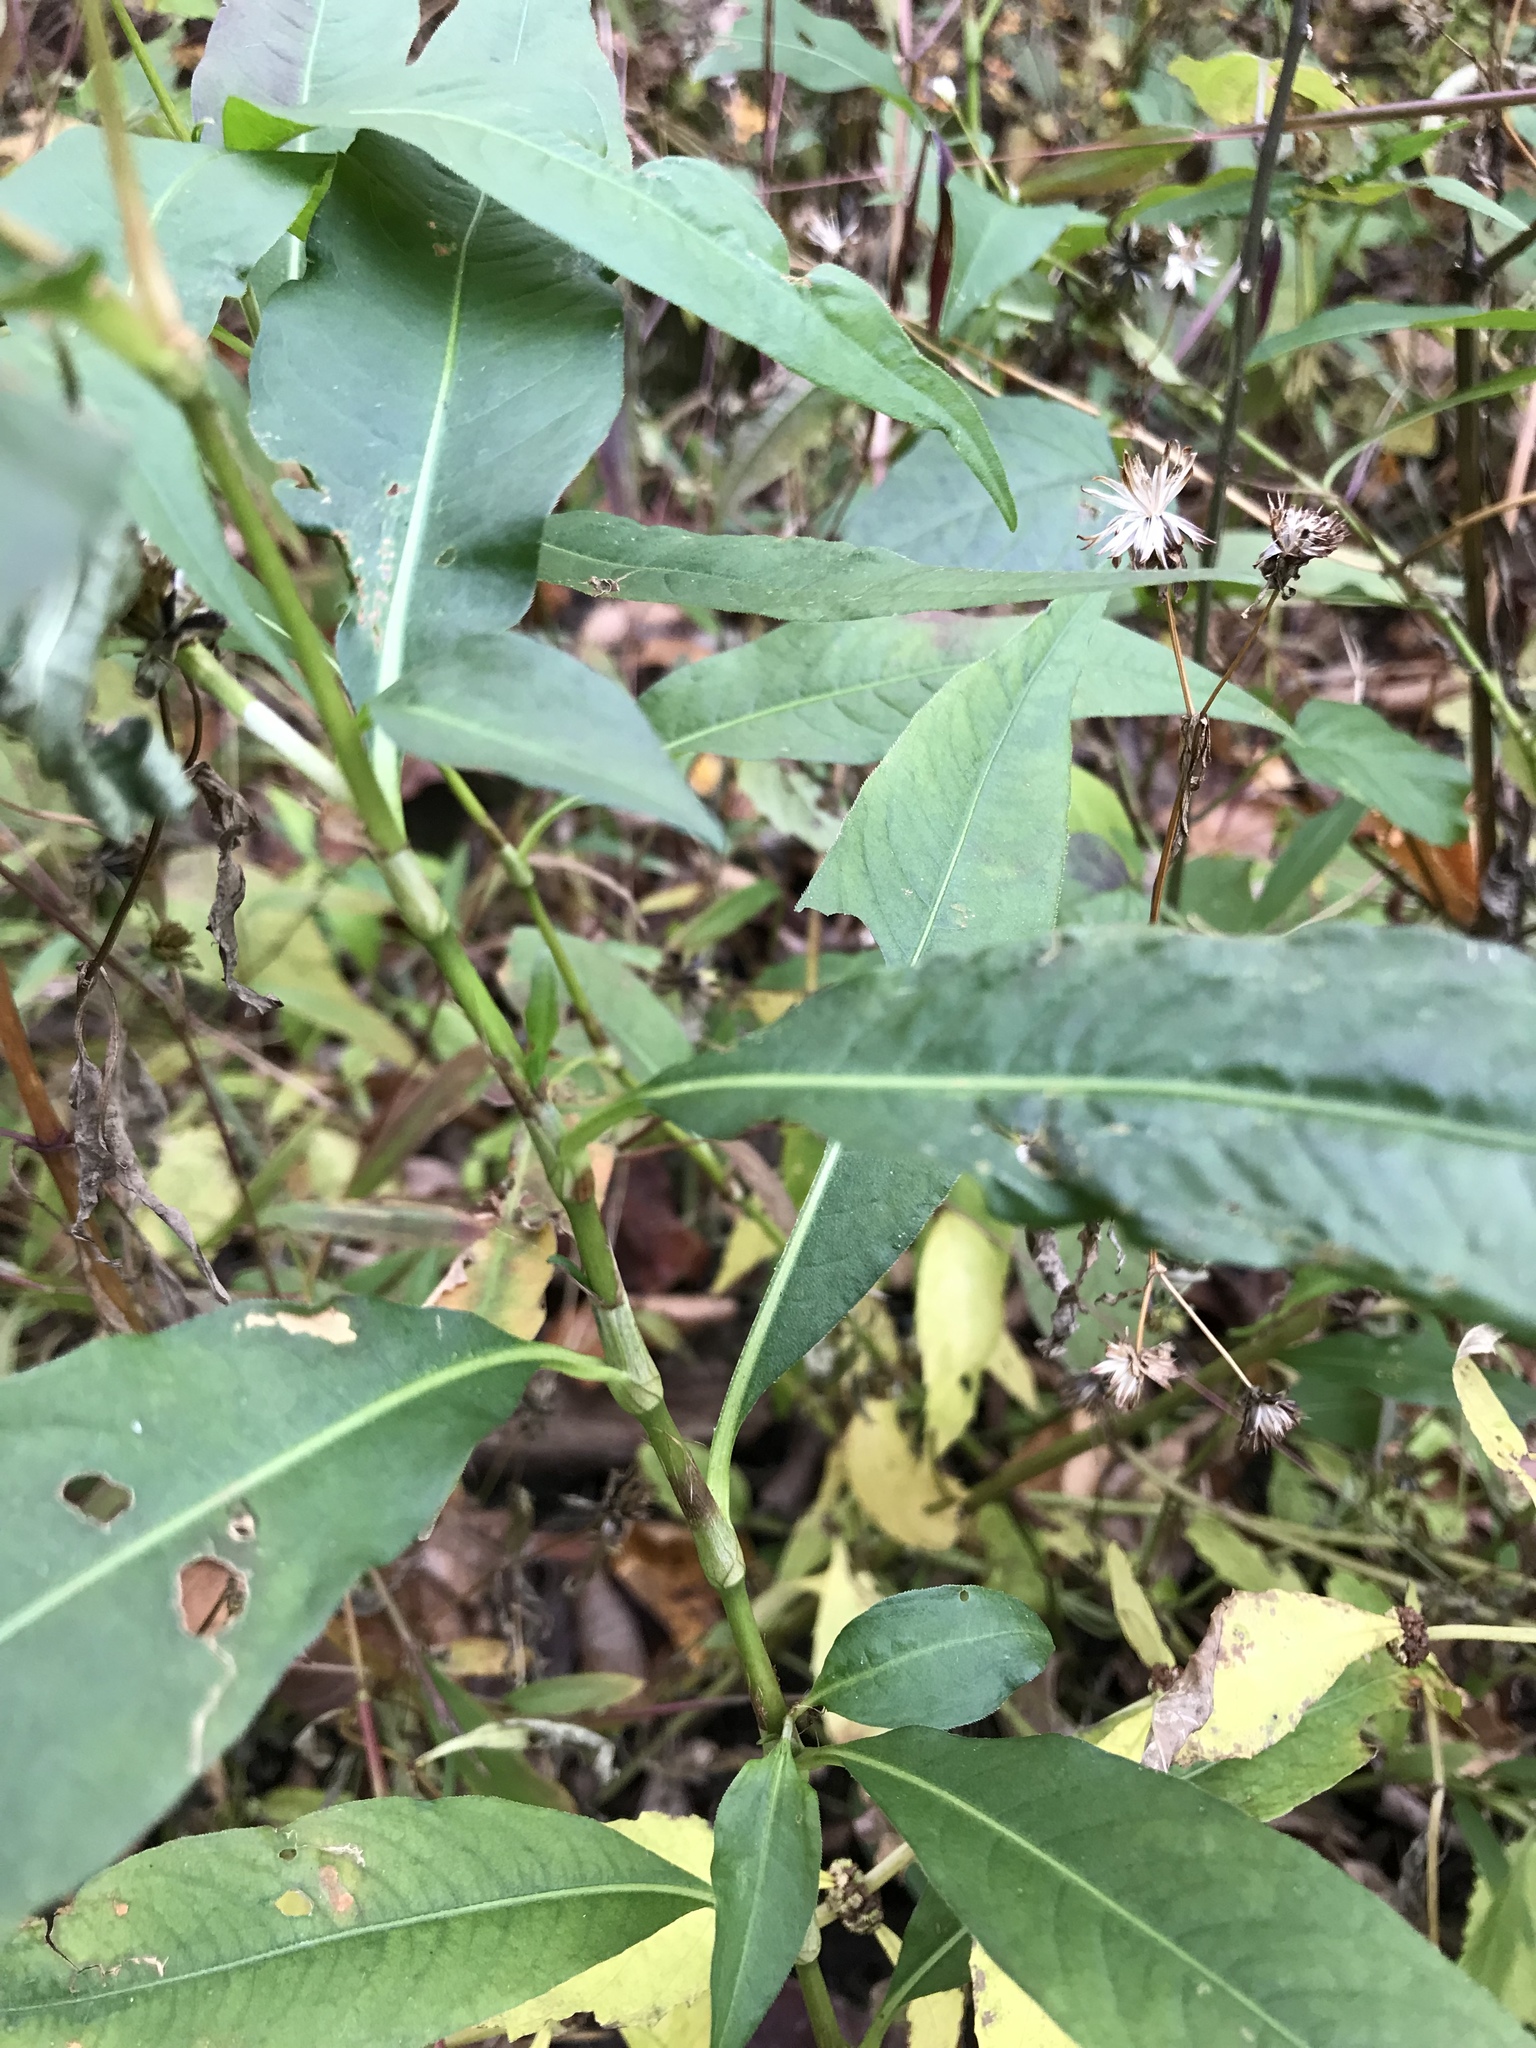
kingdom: Plantae
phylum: Tracheophyta
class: Magnoliopsida
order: Caryophyllales
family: Polygonaceae
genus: Persicaria
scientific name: Persicaria punctata
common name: Dotted smartweed
